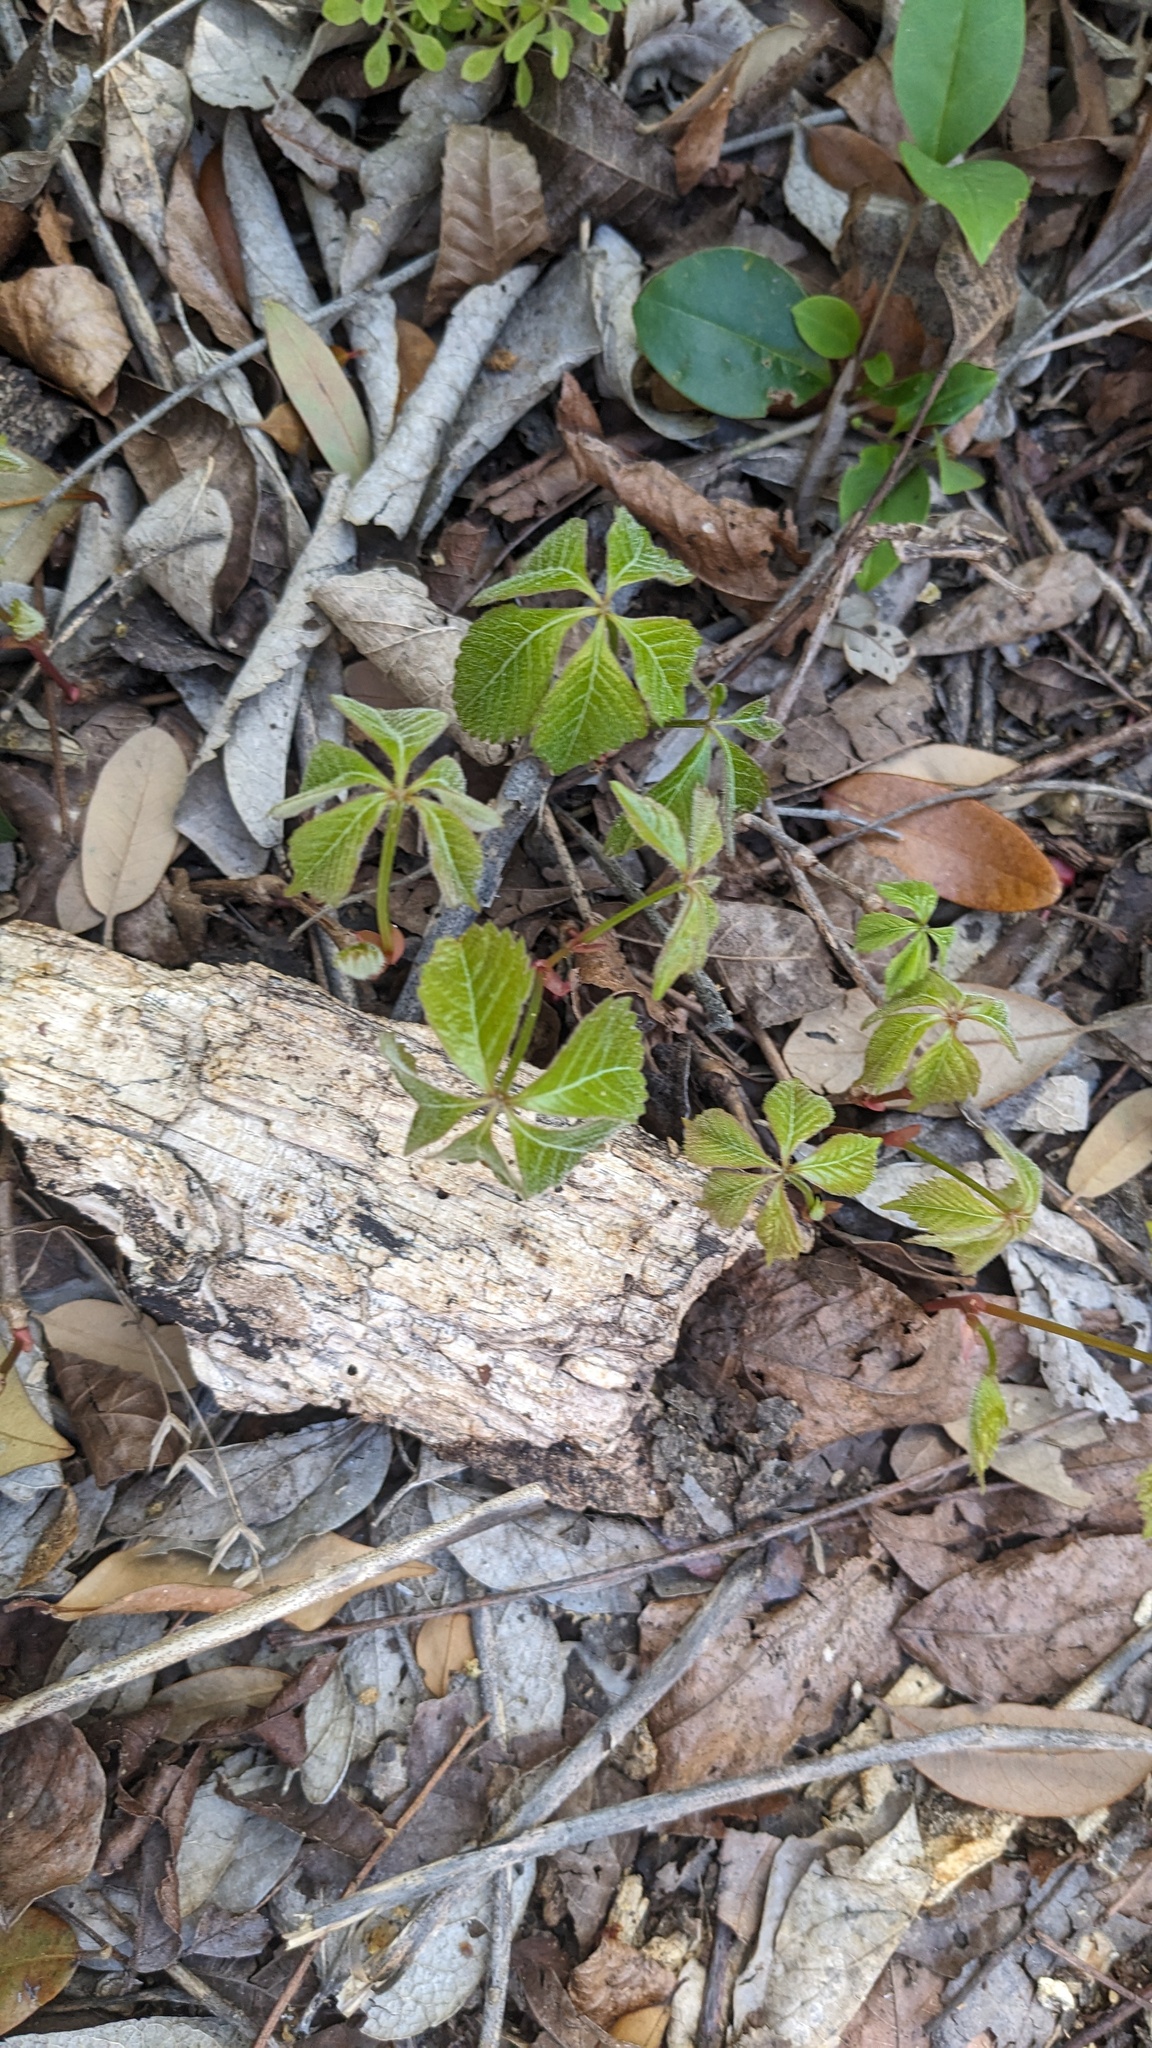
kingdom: Plantae
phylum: Tracheophyta
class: Magnoliopsida
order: Vitales
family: Vitaceae
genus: Parthenocissus
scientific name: Parthenocissus quinquefolia
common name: Virginia-creeper
